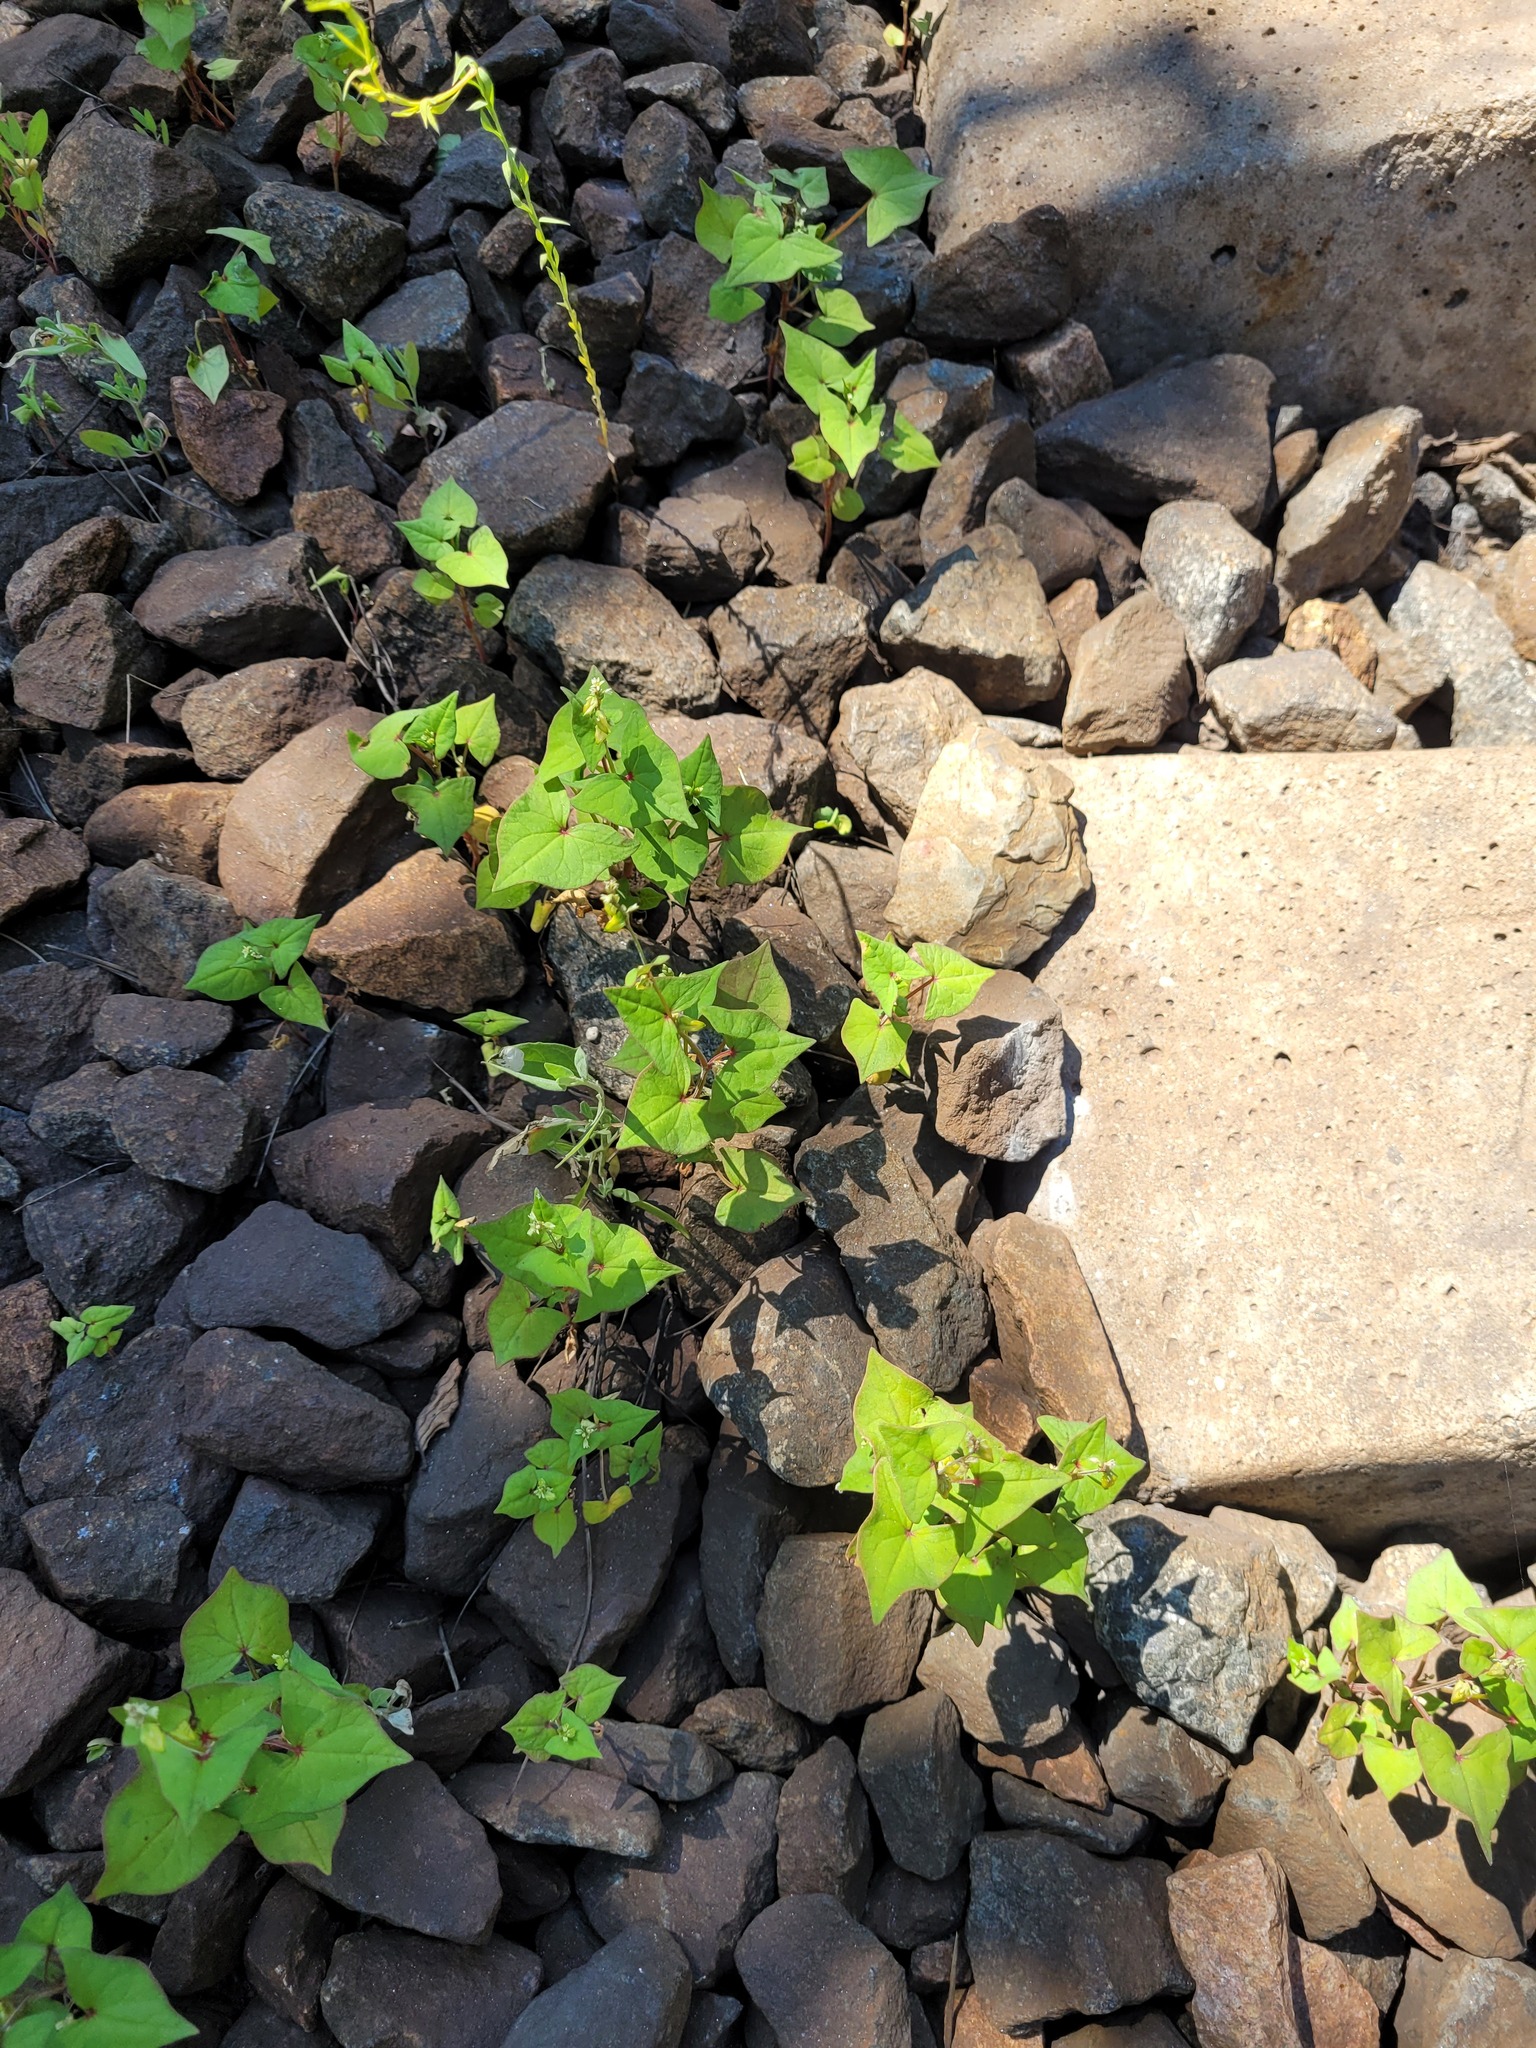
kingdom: Plantae
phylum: Tracheophyta
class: Magnoliopsida
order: Caryophyllales
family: Polygonaceae
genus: Fagopyrum
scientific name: Fagopyrum tataricum
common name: Green buckwheat
